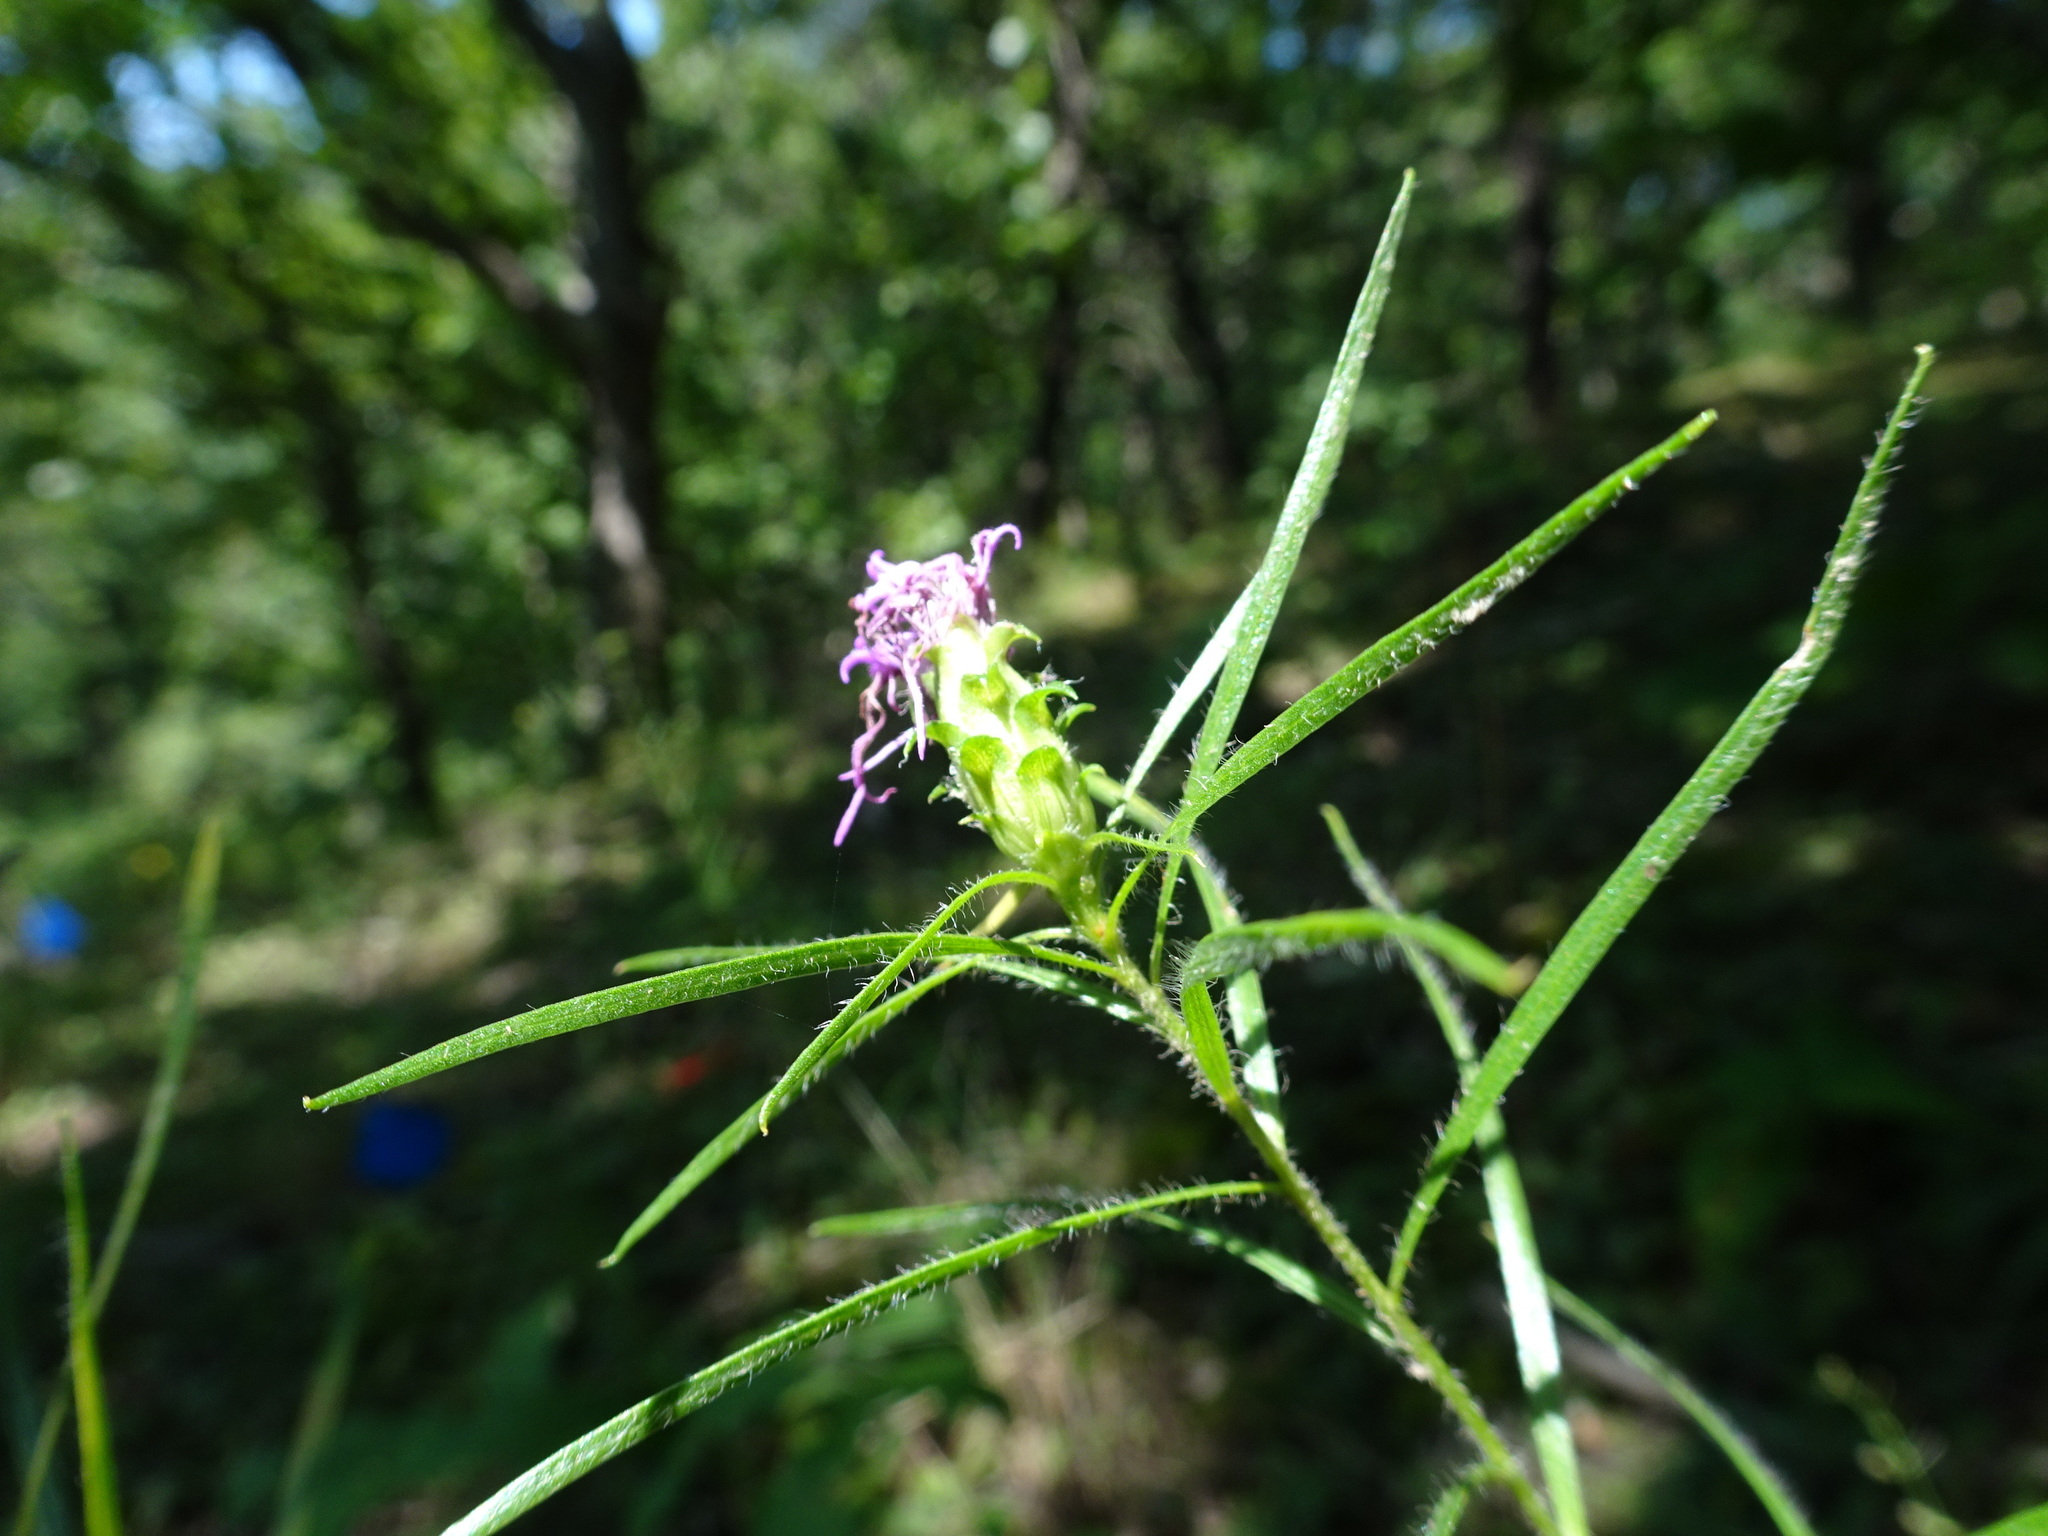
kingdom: Plantae
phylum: Tracheophyta
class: Magnoliopsida
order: Asterales
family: Asteraceae
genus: Liatris
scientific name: Liatris hirsuta
